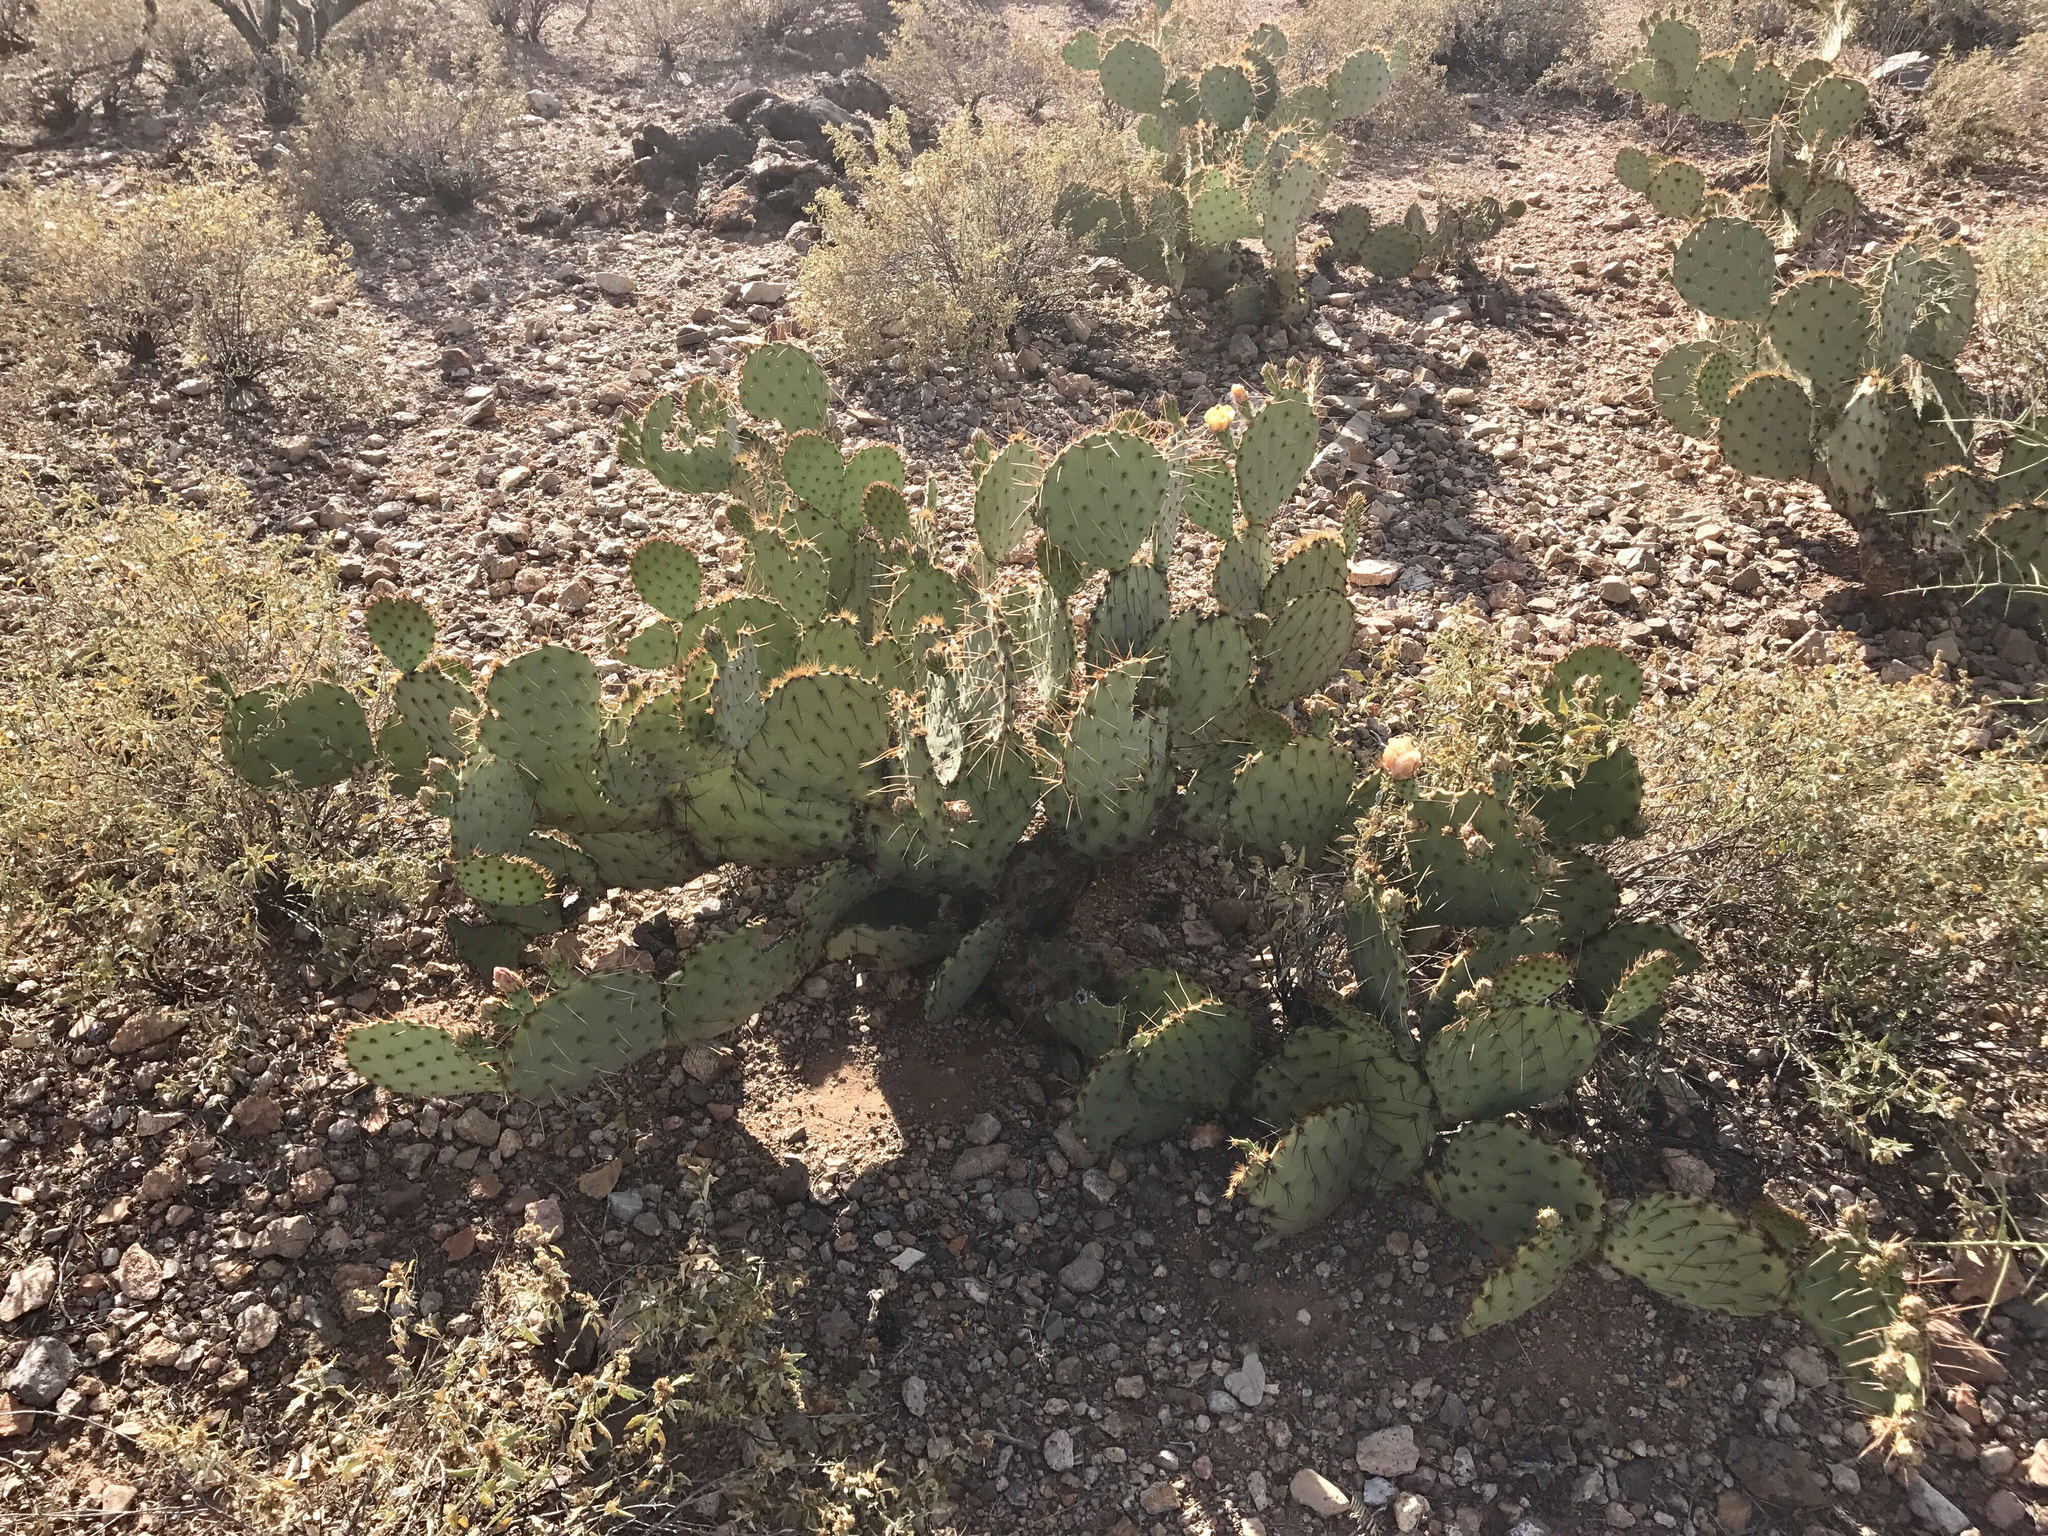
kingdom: Plantae
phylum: Tracheophyta
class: Magnoliopsida
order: Caryophyllales
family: Cactaceae
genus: Opuntia
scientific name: Opuntia engelmannii
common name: Cactus-apple
